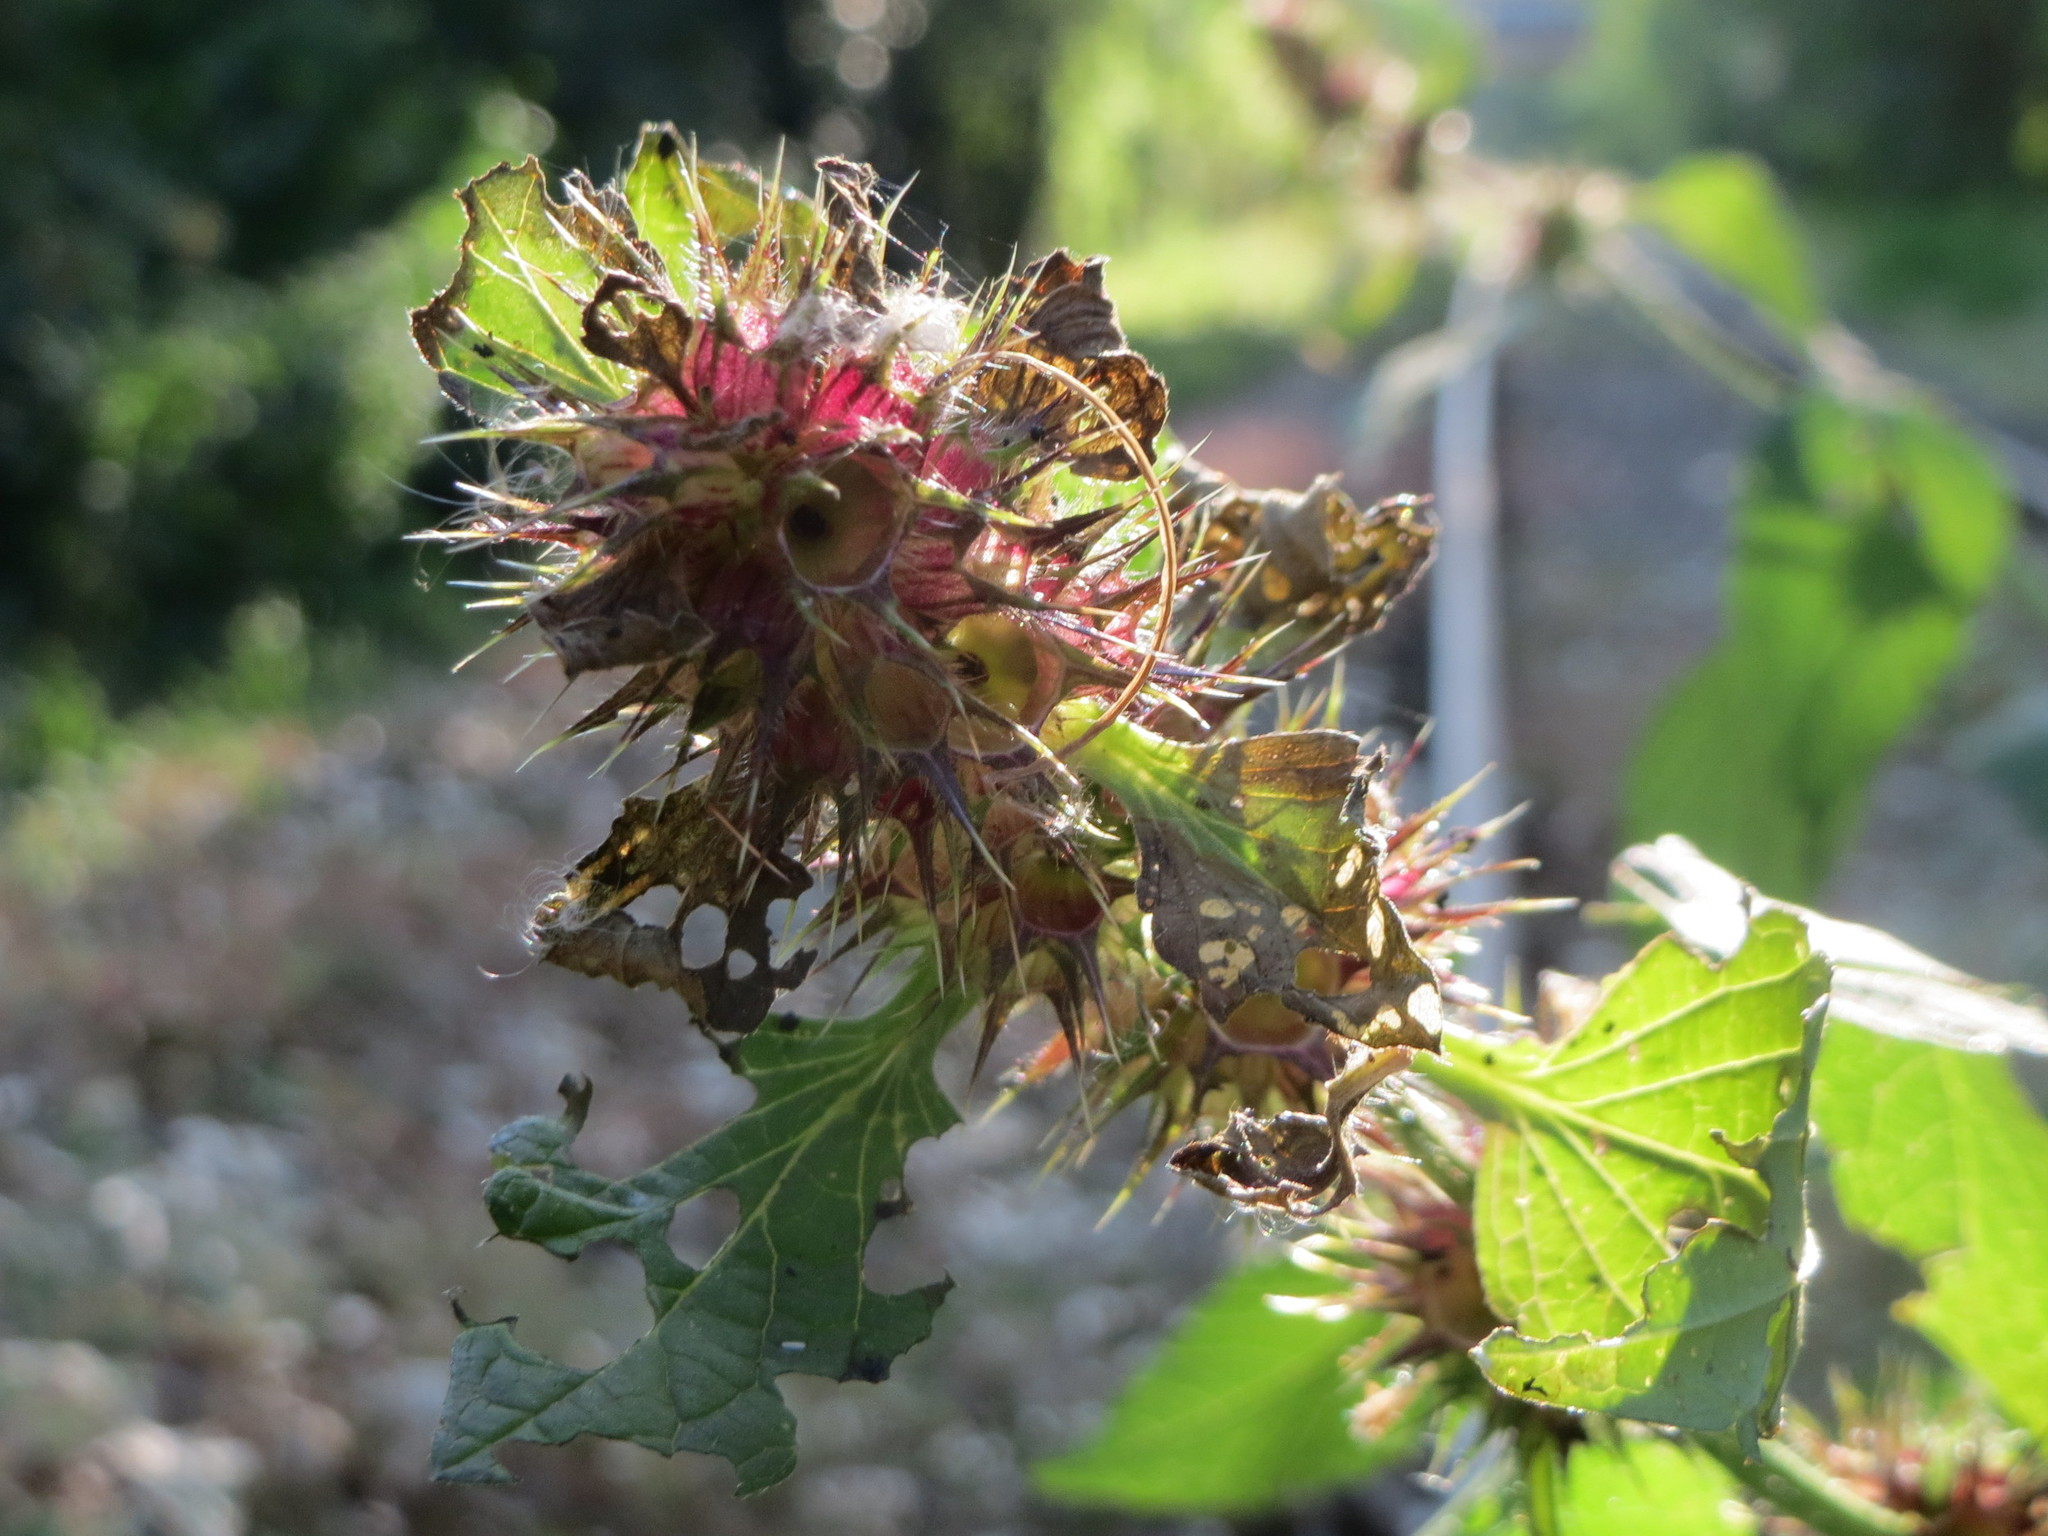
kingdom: Plantae
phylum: Tracheophyta
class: Magnoliopsida
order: Lamiales
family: Lamiaceae
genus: Galeopsis
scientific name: Galeopsis tetrahit
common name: Common hemp-nettle
